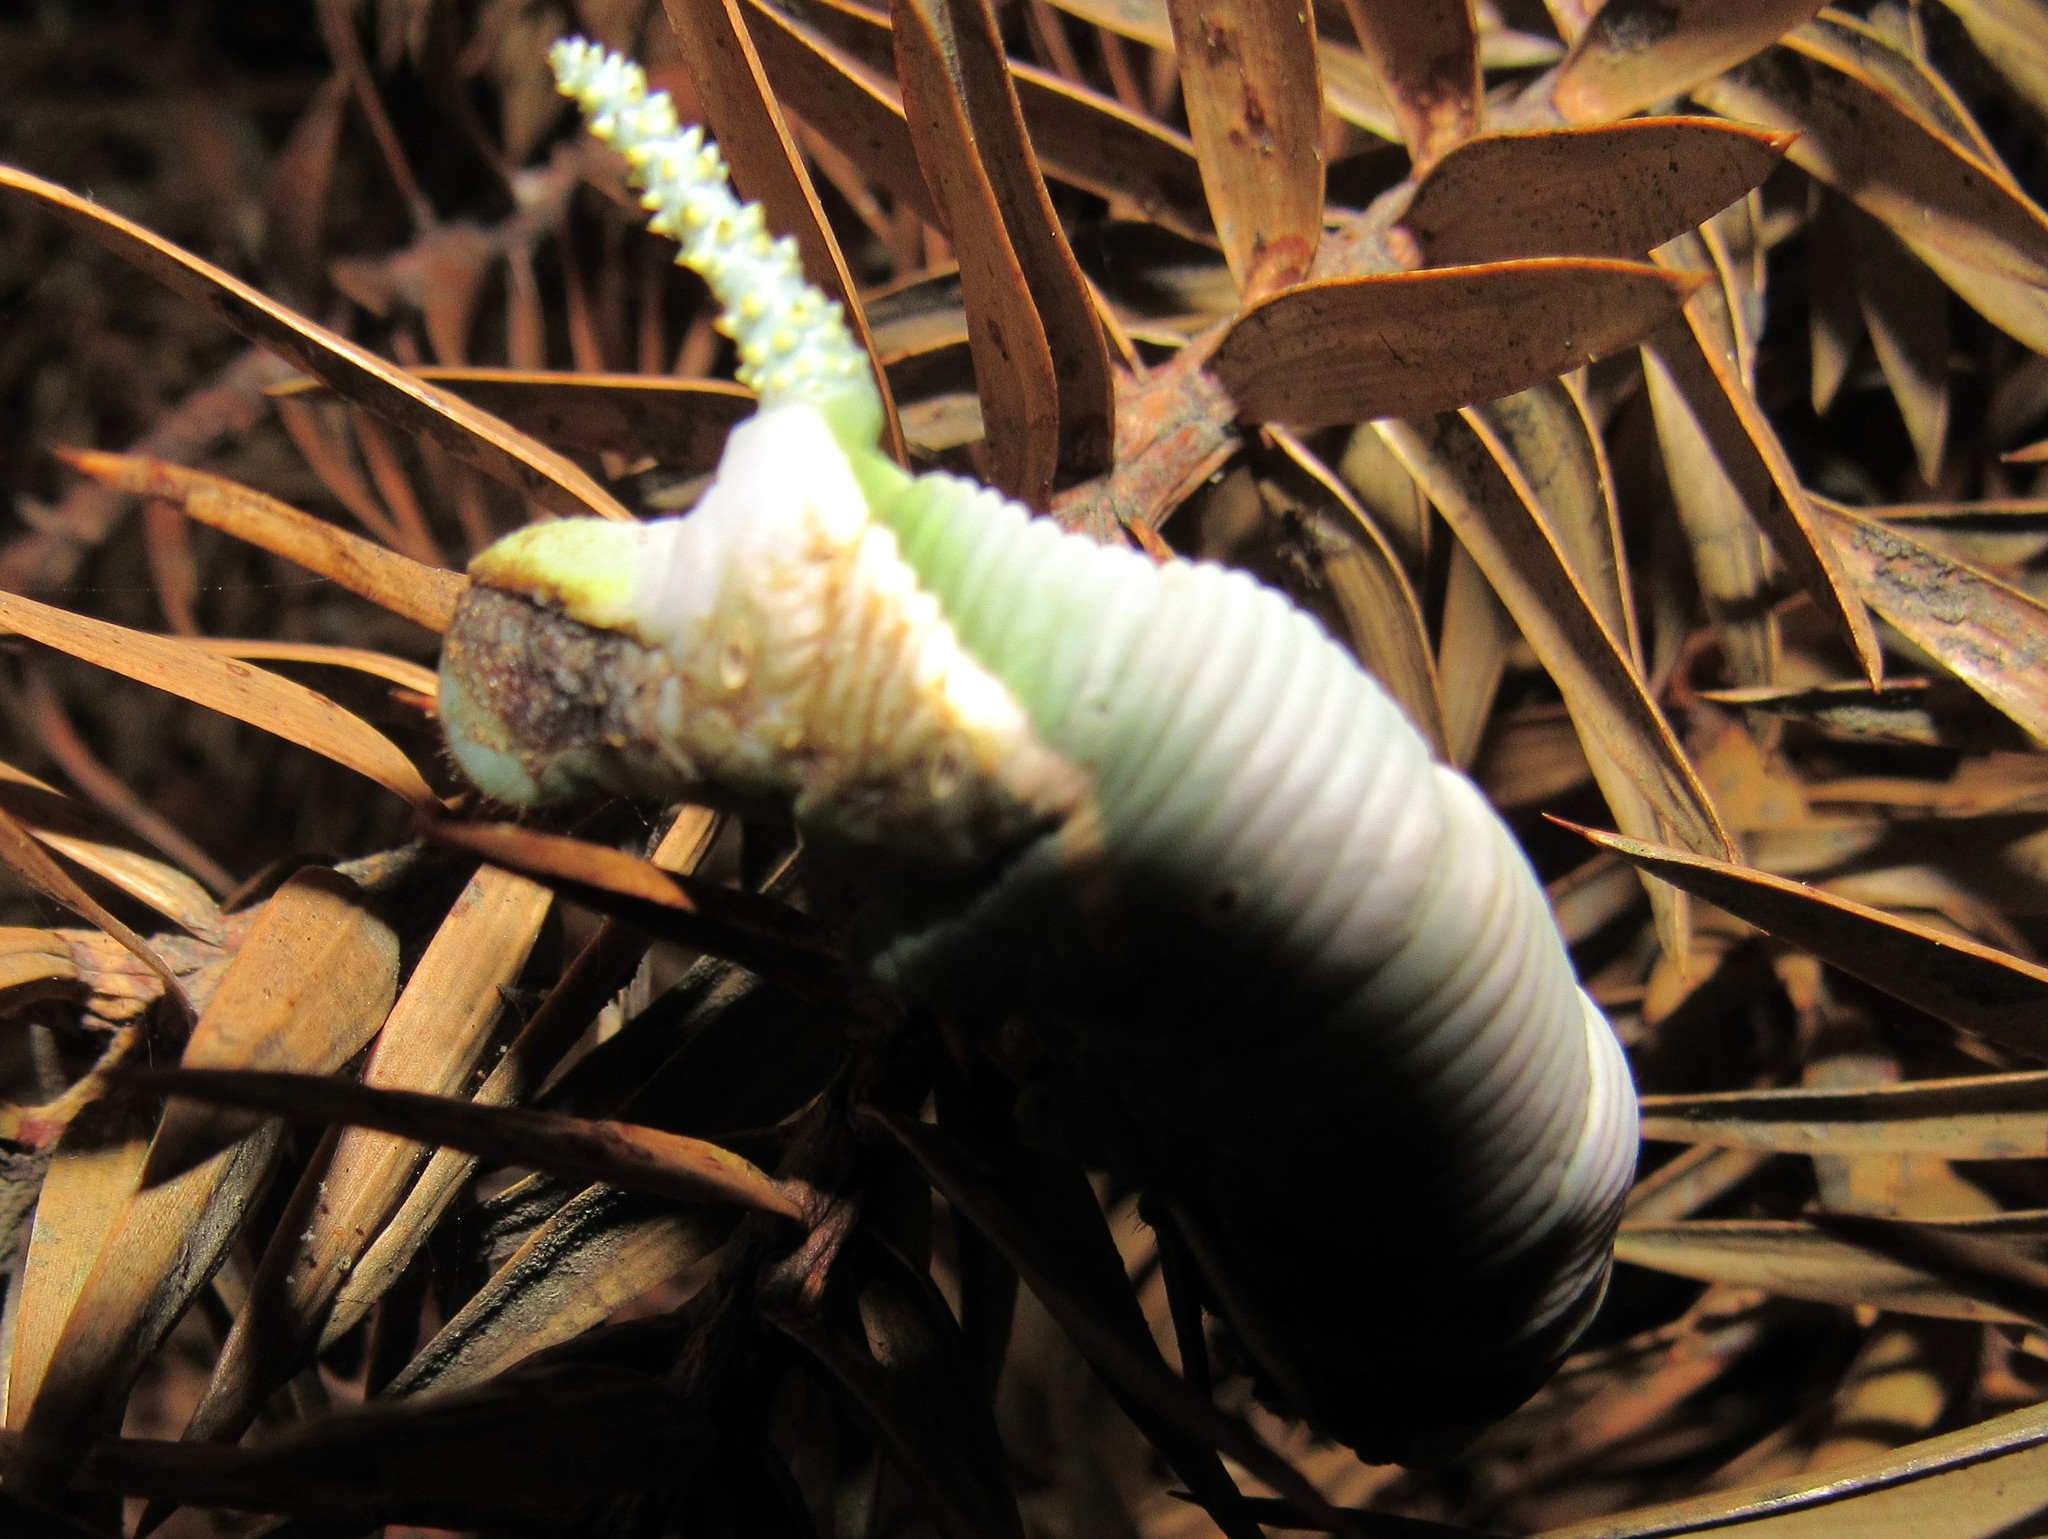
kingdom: Animalia
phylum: Arthropoda
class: Insecta
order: Lepidoptera
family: Sphingidae
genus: Cocytius
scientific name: Cocytius lucifer
